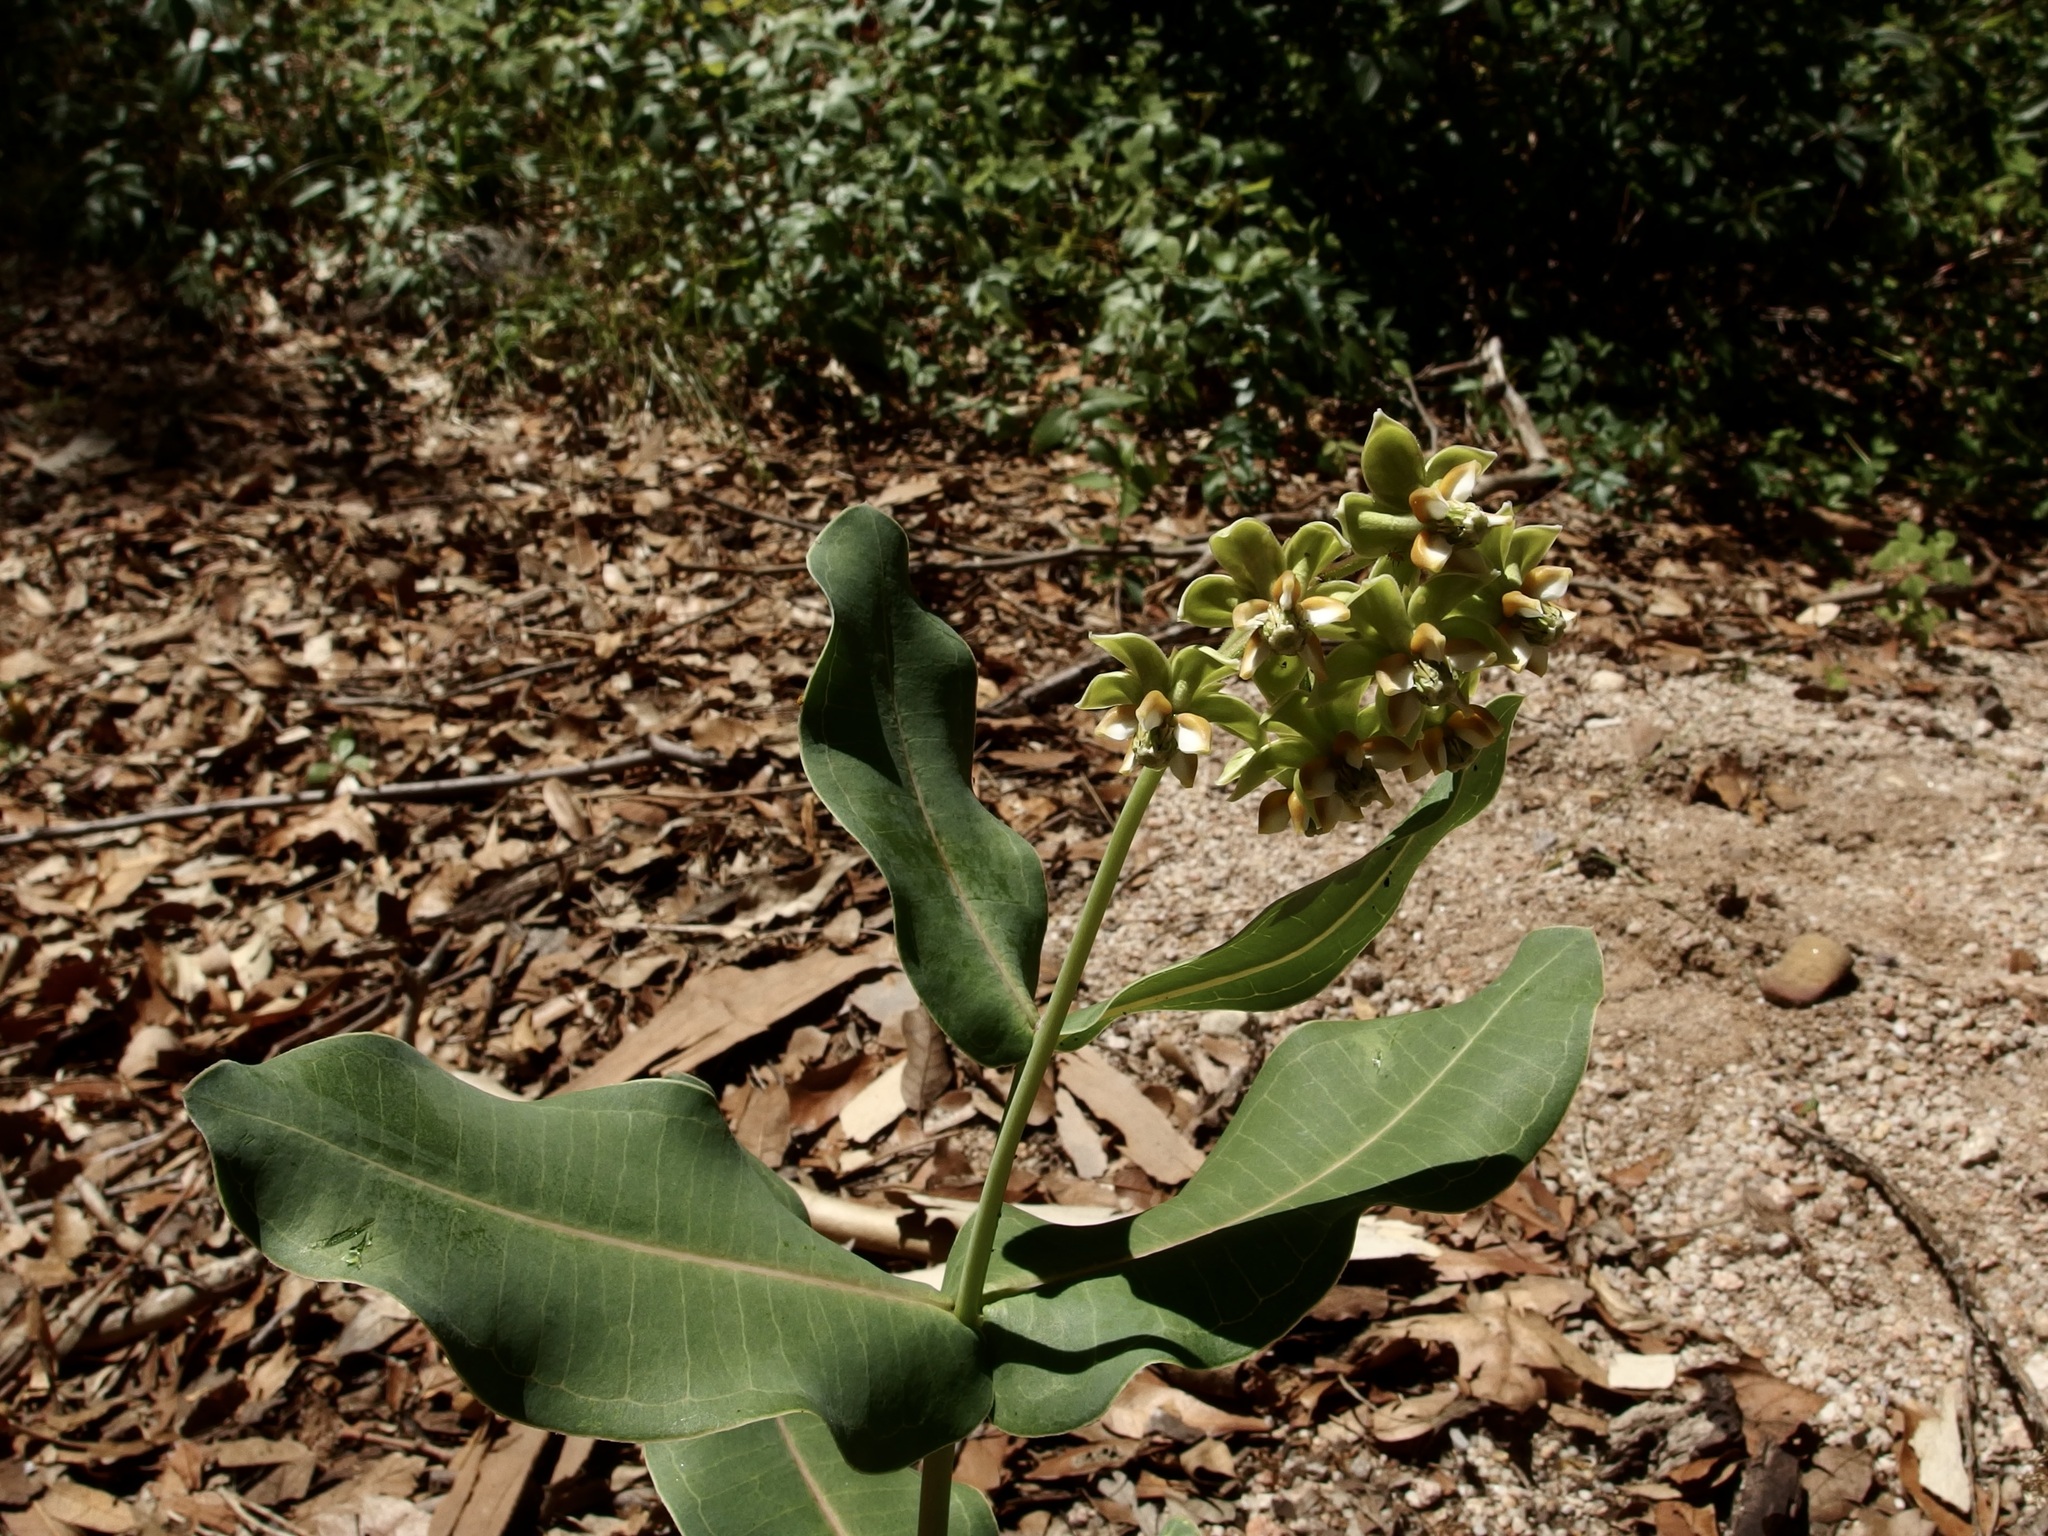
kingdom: Plantae
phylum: Tracheophyta
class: Magnoliopsida
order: Gentianales
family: Apocynaceae
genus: Asclepias
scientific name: Asclepias elata
